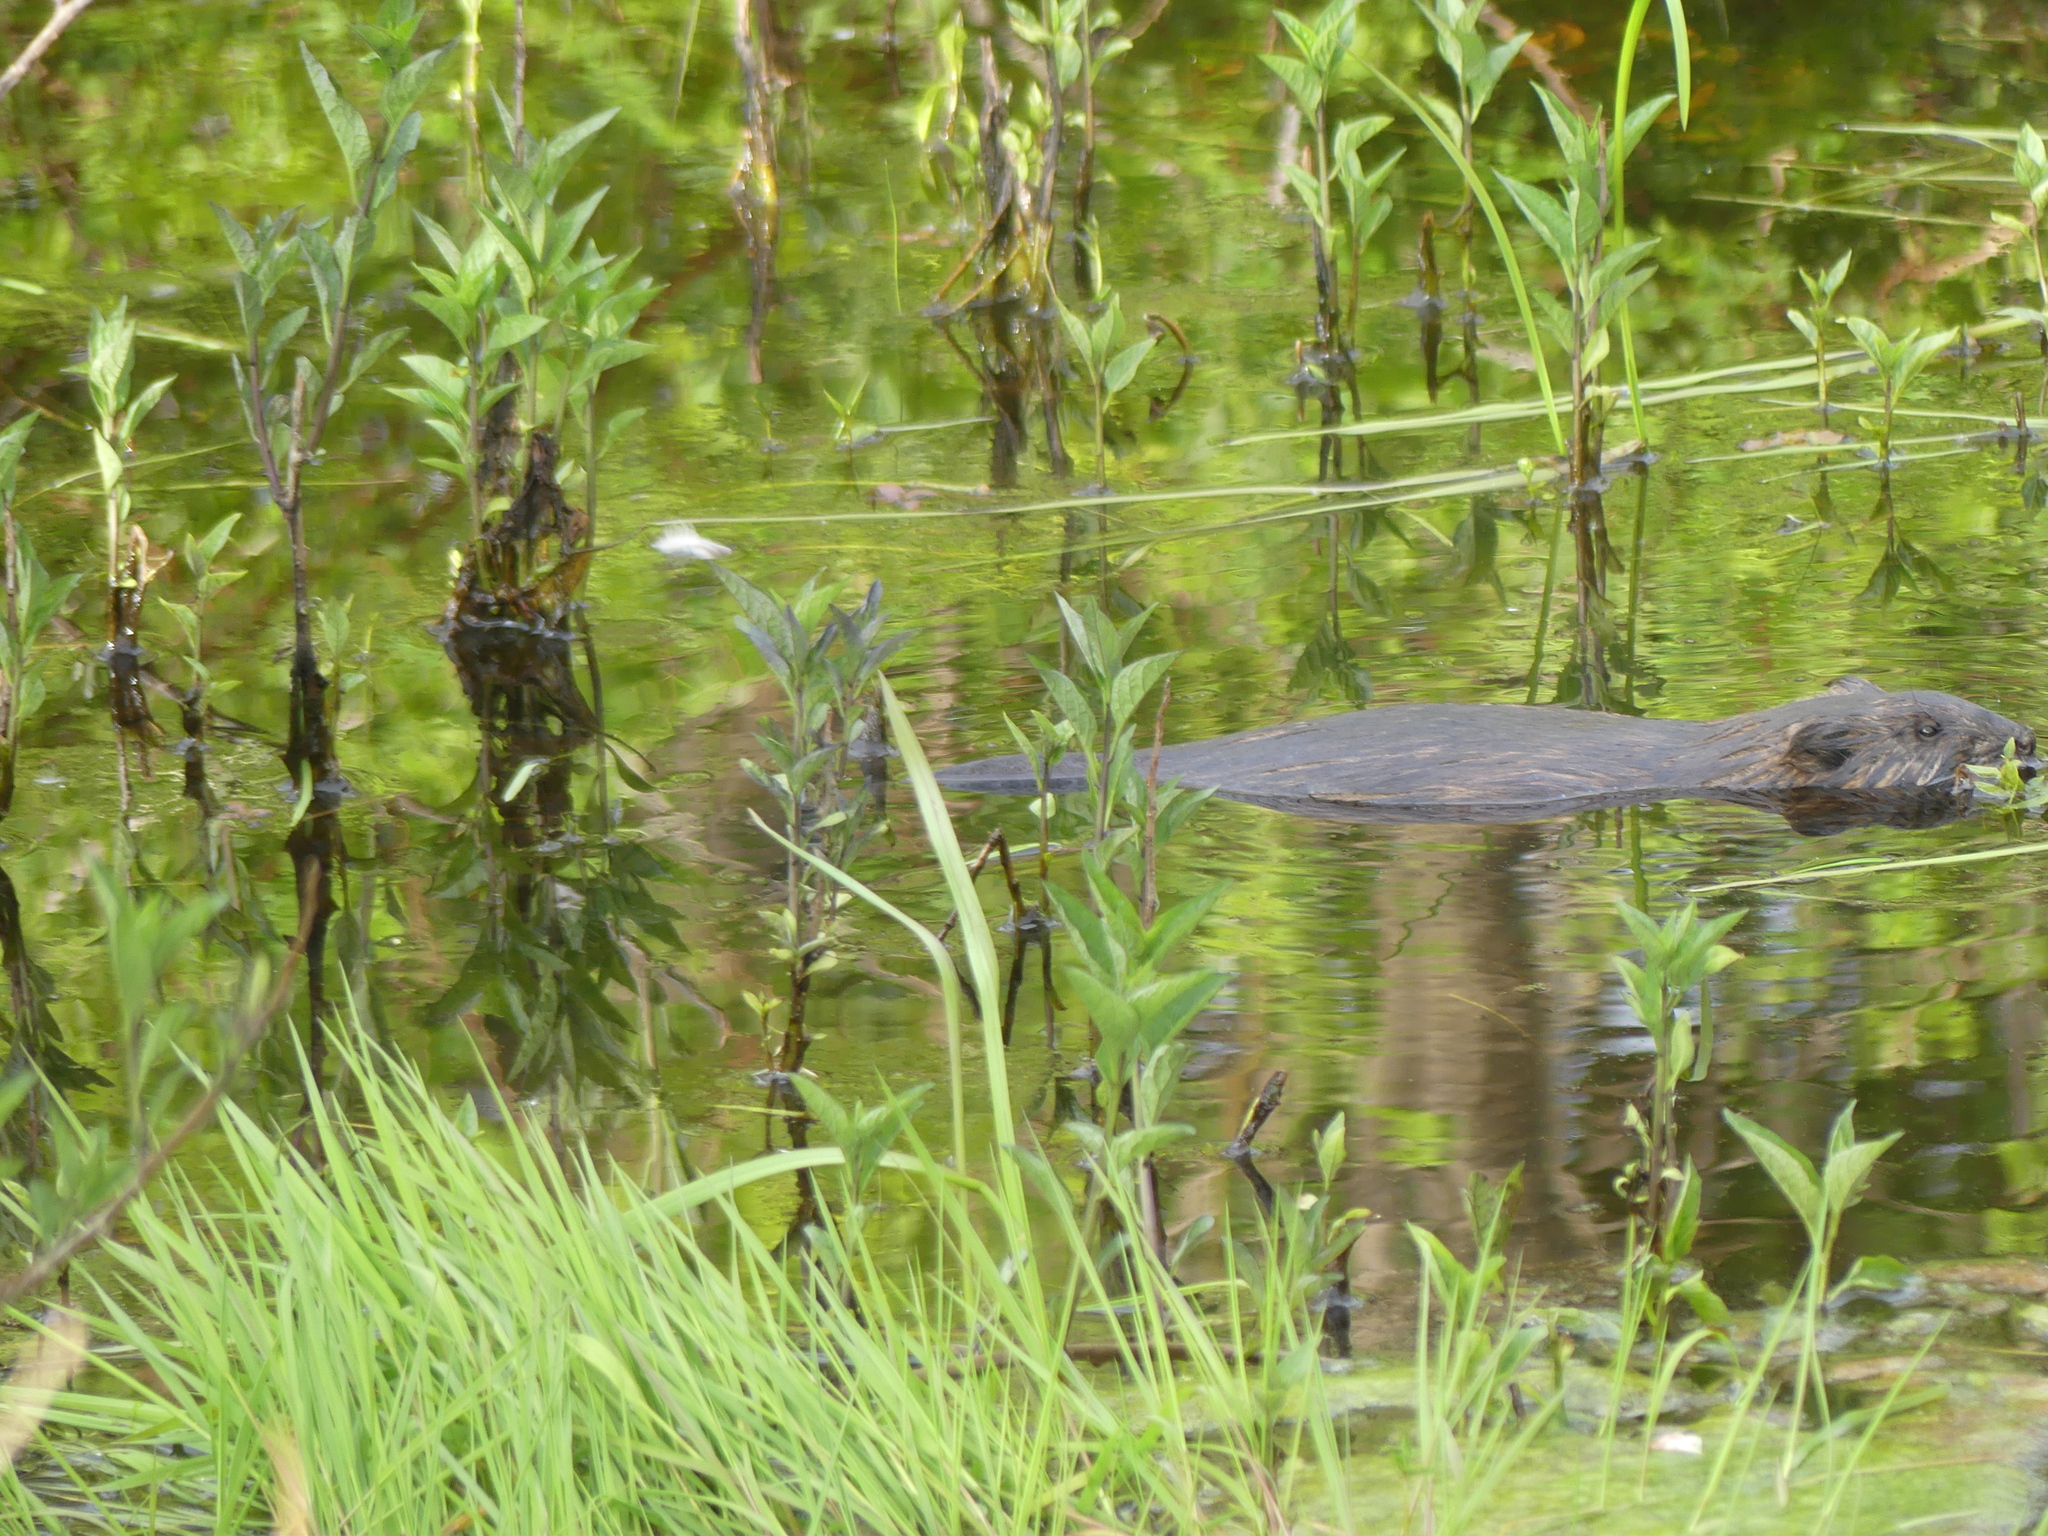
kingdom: Animalia
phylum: Chordata
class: Mammalia
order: Rodentia
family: Cricetidae
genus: Ondatra
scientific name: Ondatra zibethicus
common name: Muskrat
